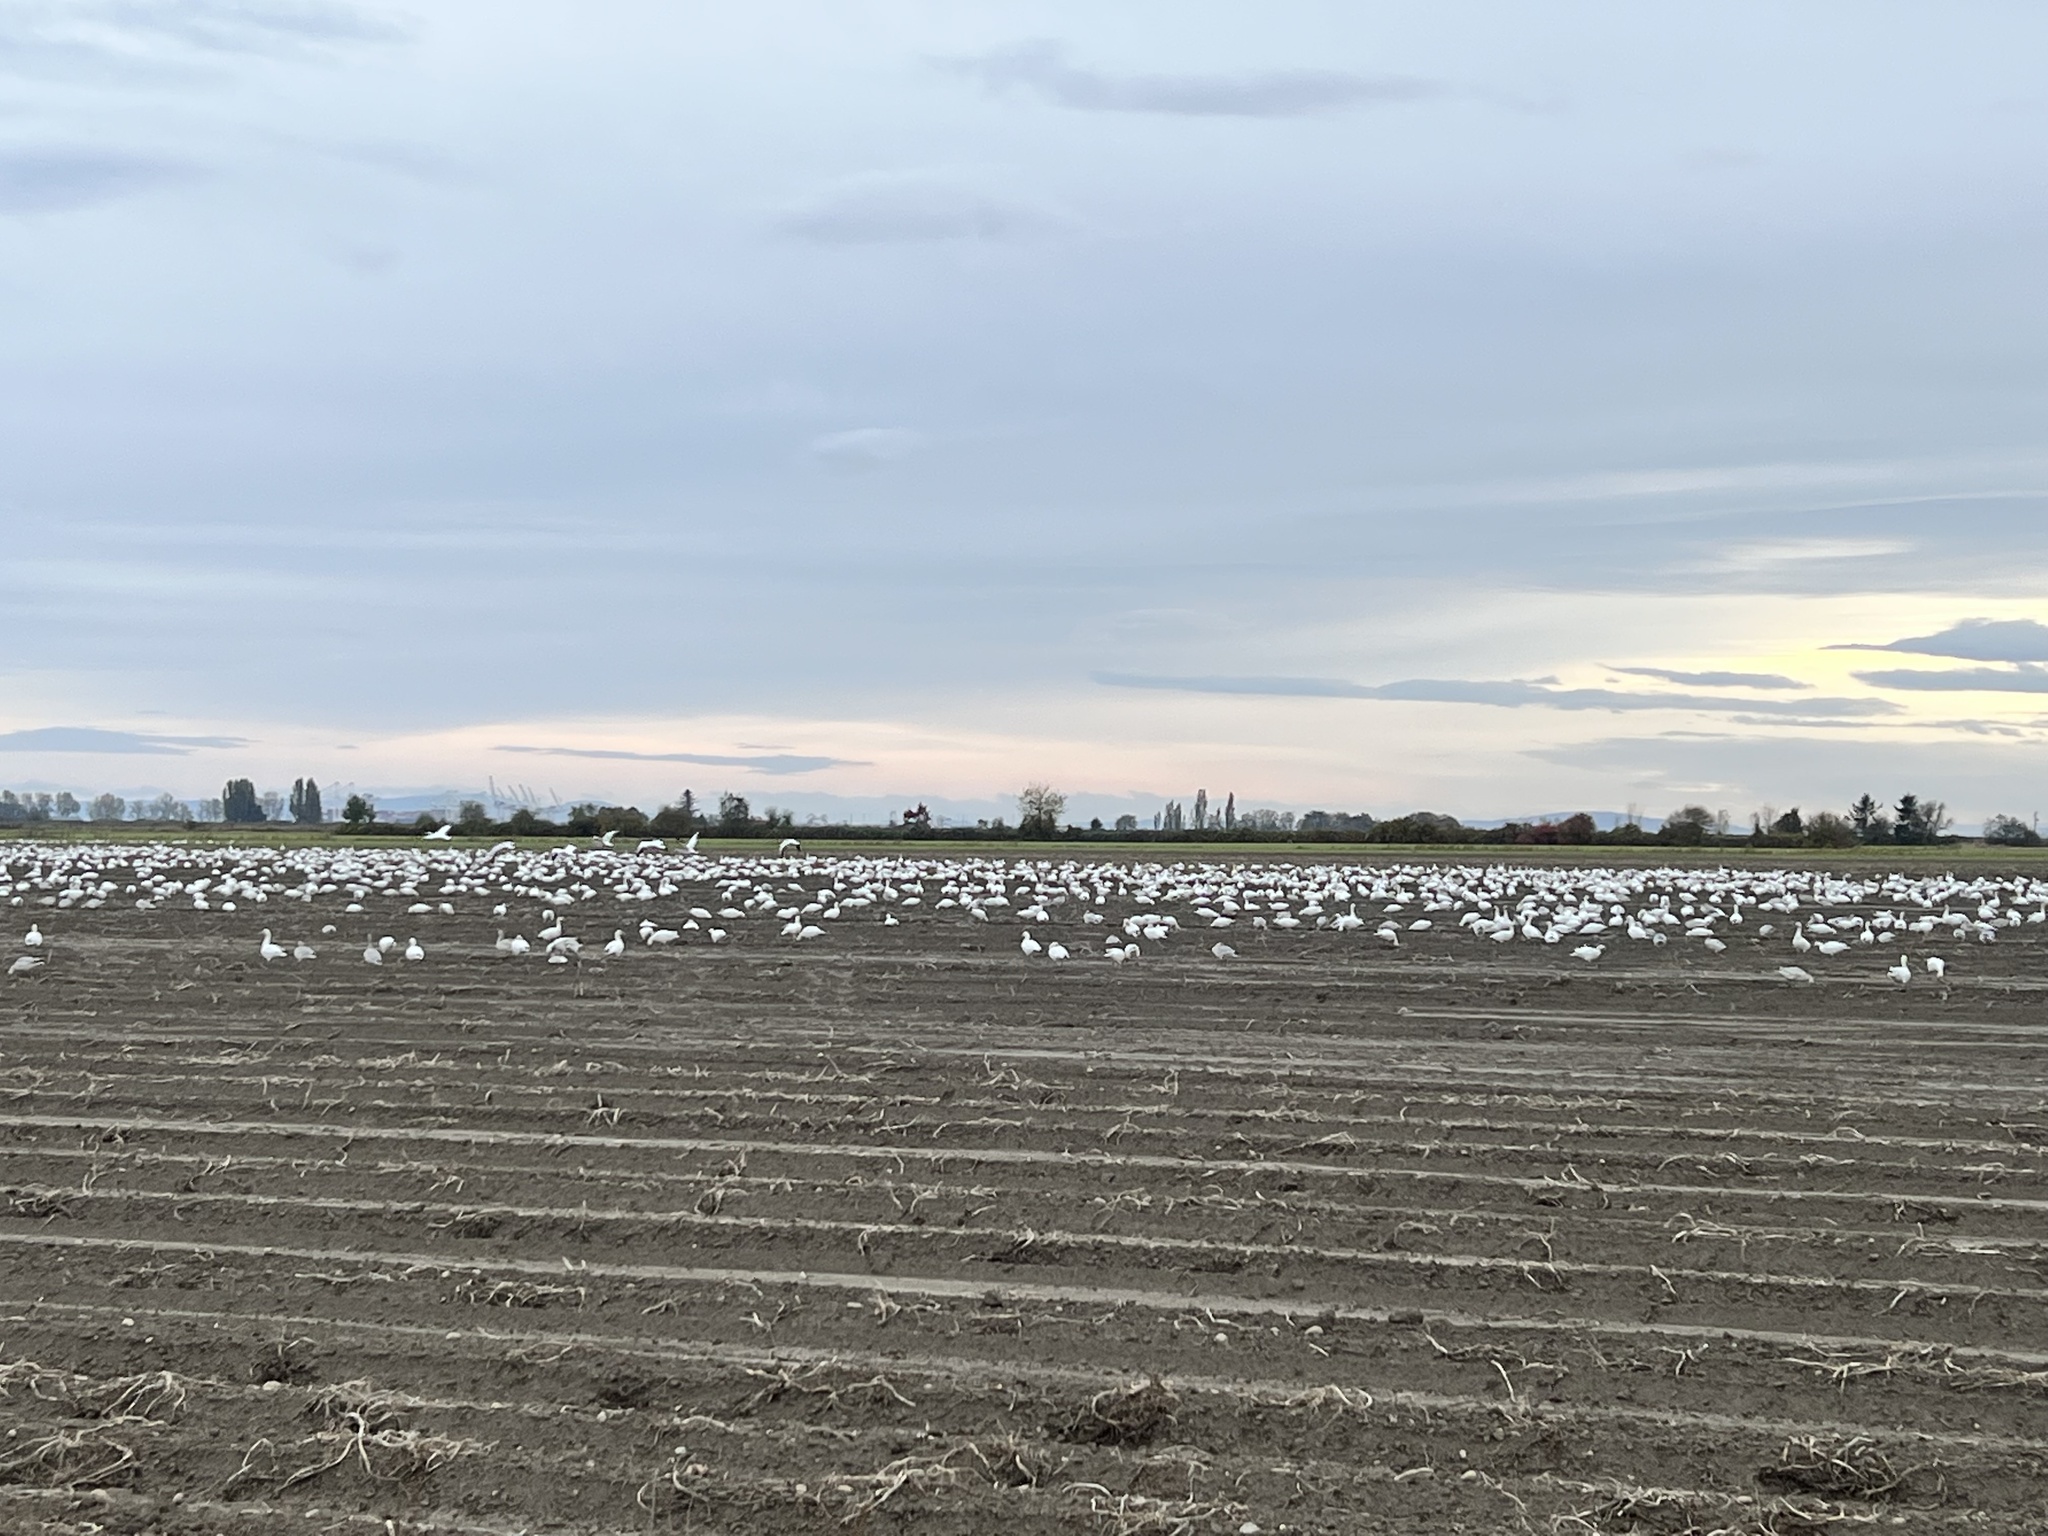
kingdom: Animalia
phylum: Chordata
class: Aves
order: Anseriformes
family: Anatidae
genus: Anser
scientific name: Anser caerulescens
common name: Snow goose
